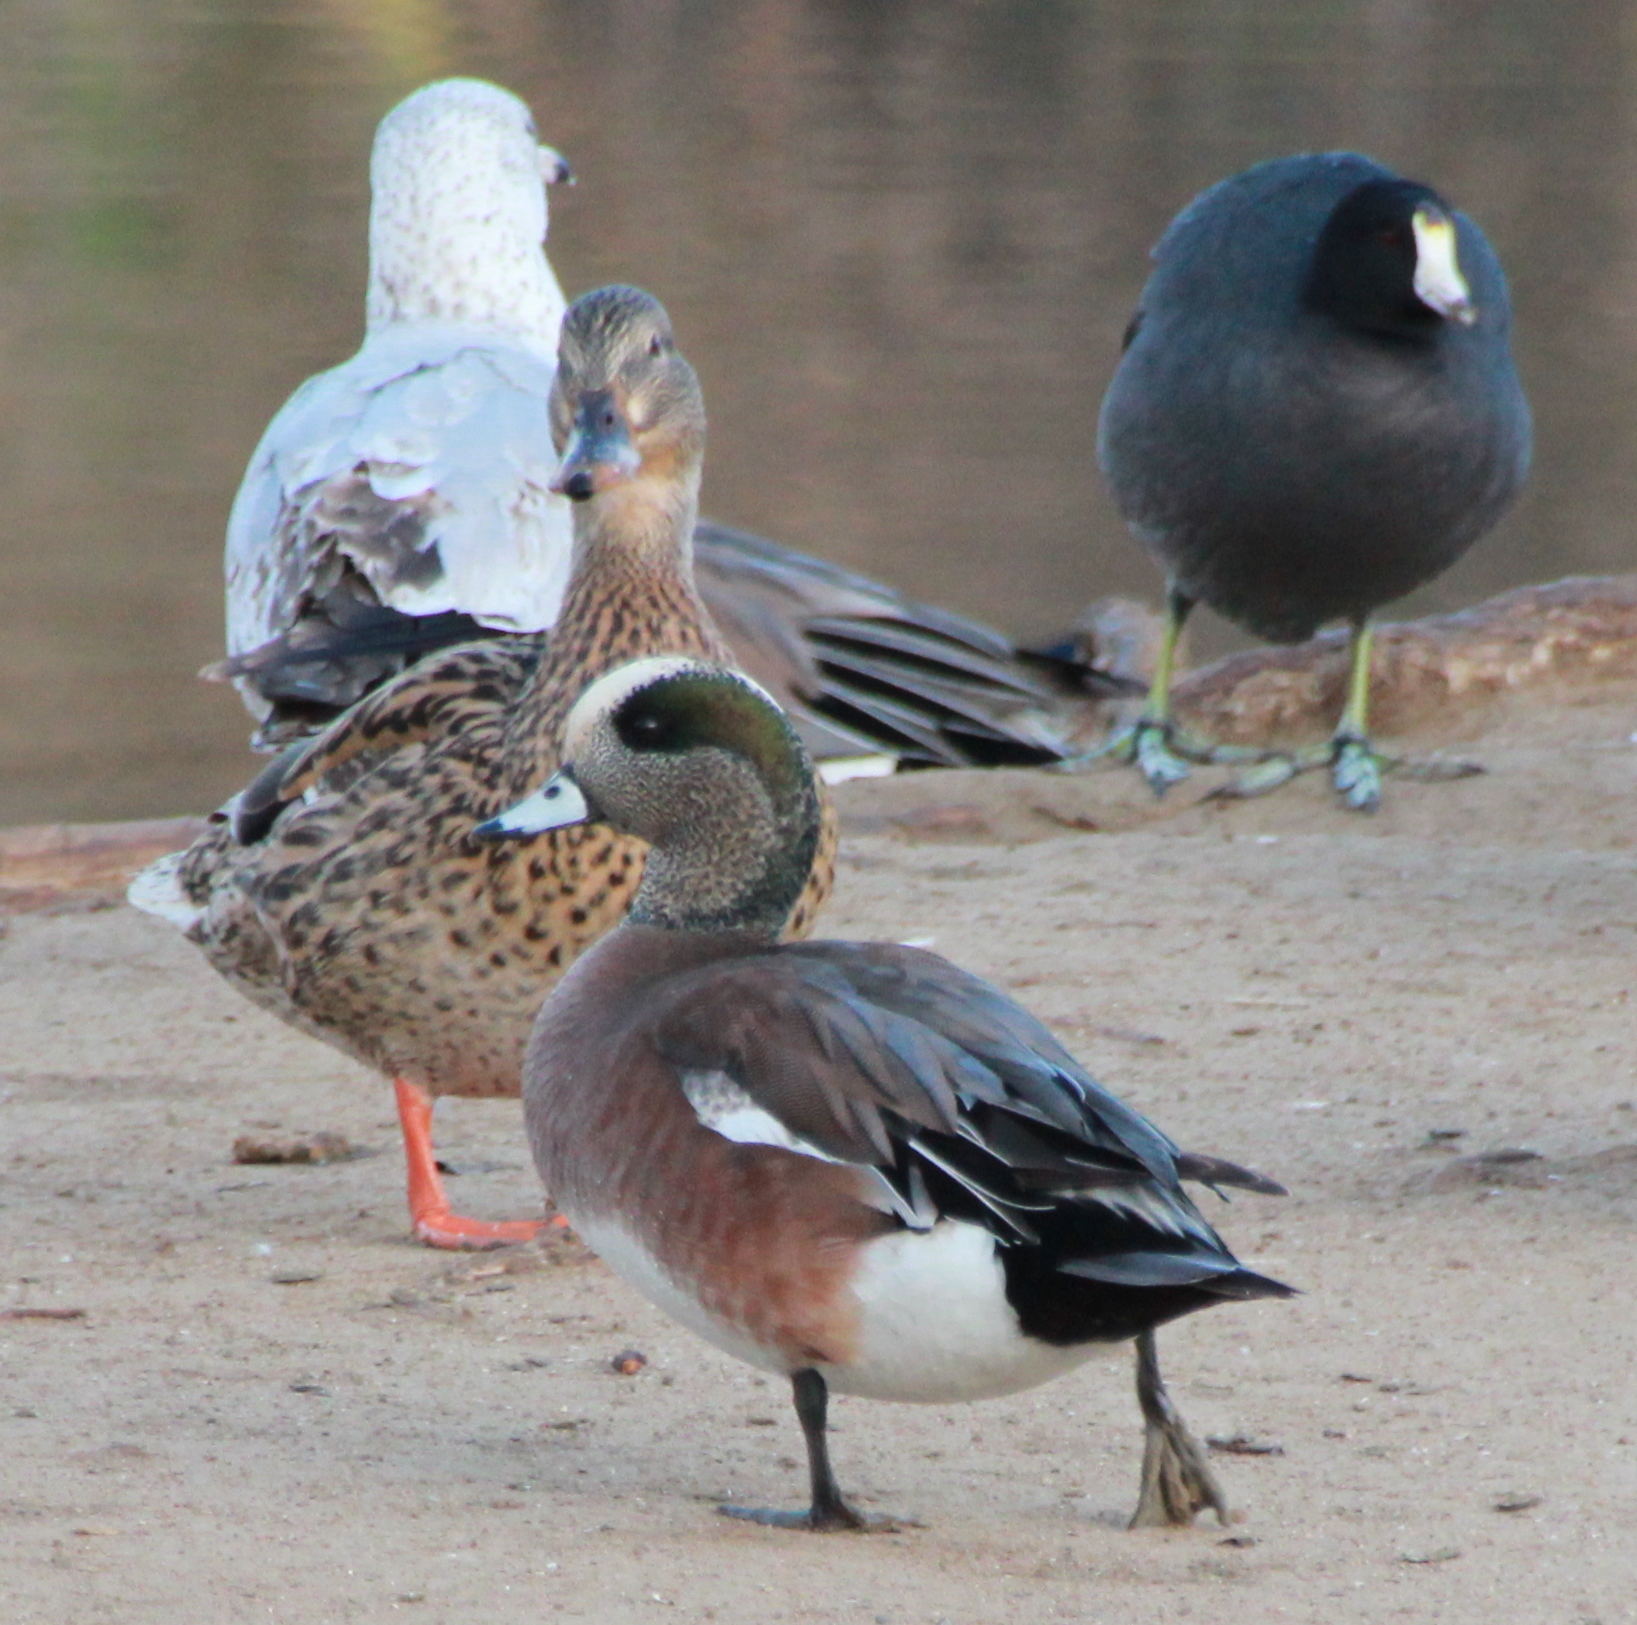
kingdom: Animalia
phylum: Chordata
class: Aves
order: Anseriformes
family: Anatidae
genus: Mareca
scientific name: Mareca americana
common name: American wigeon
